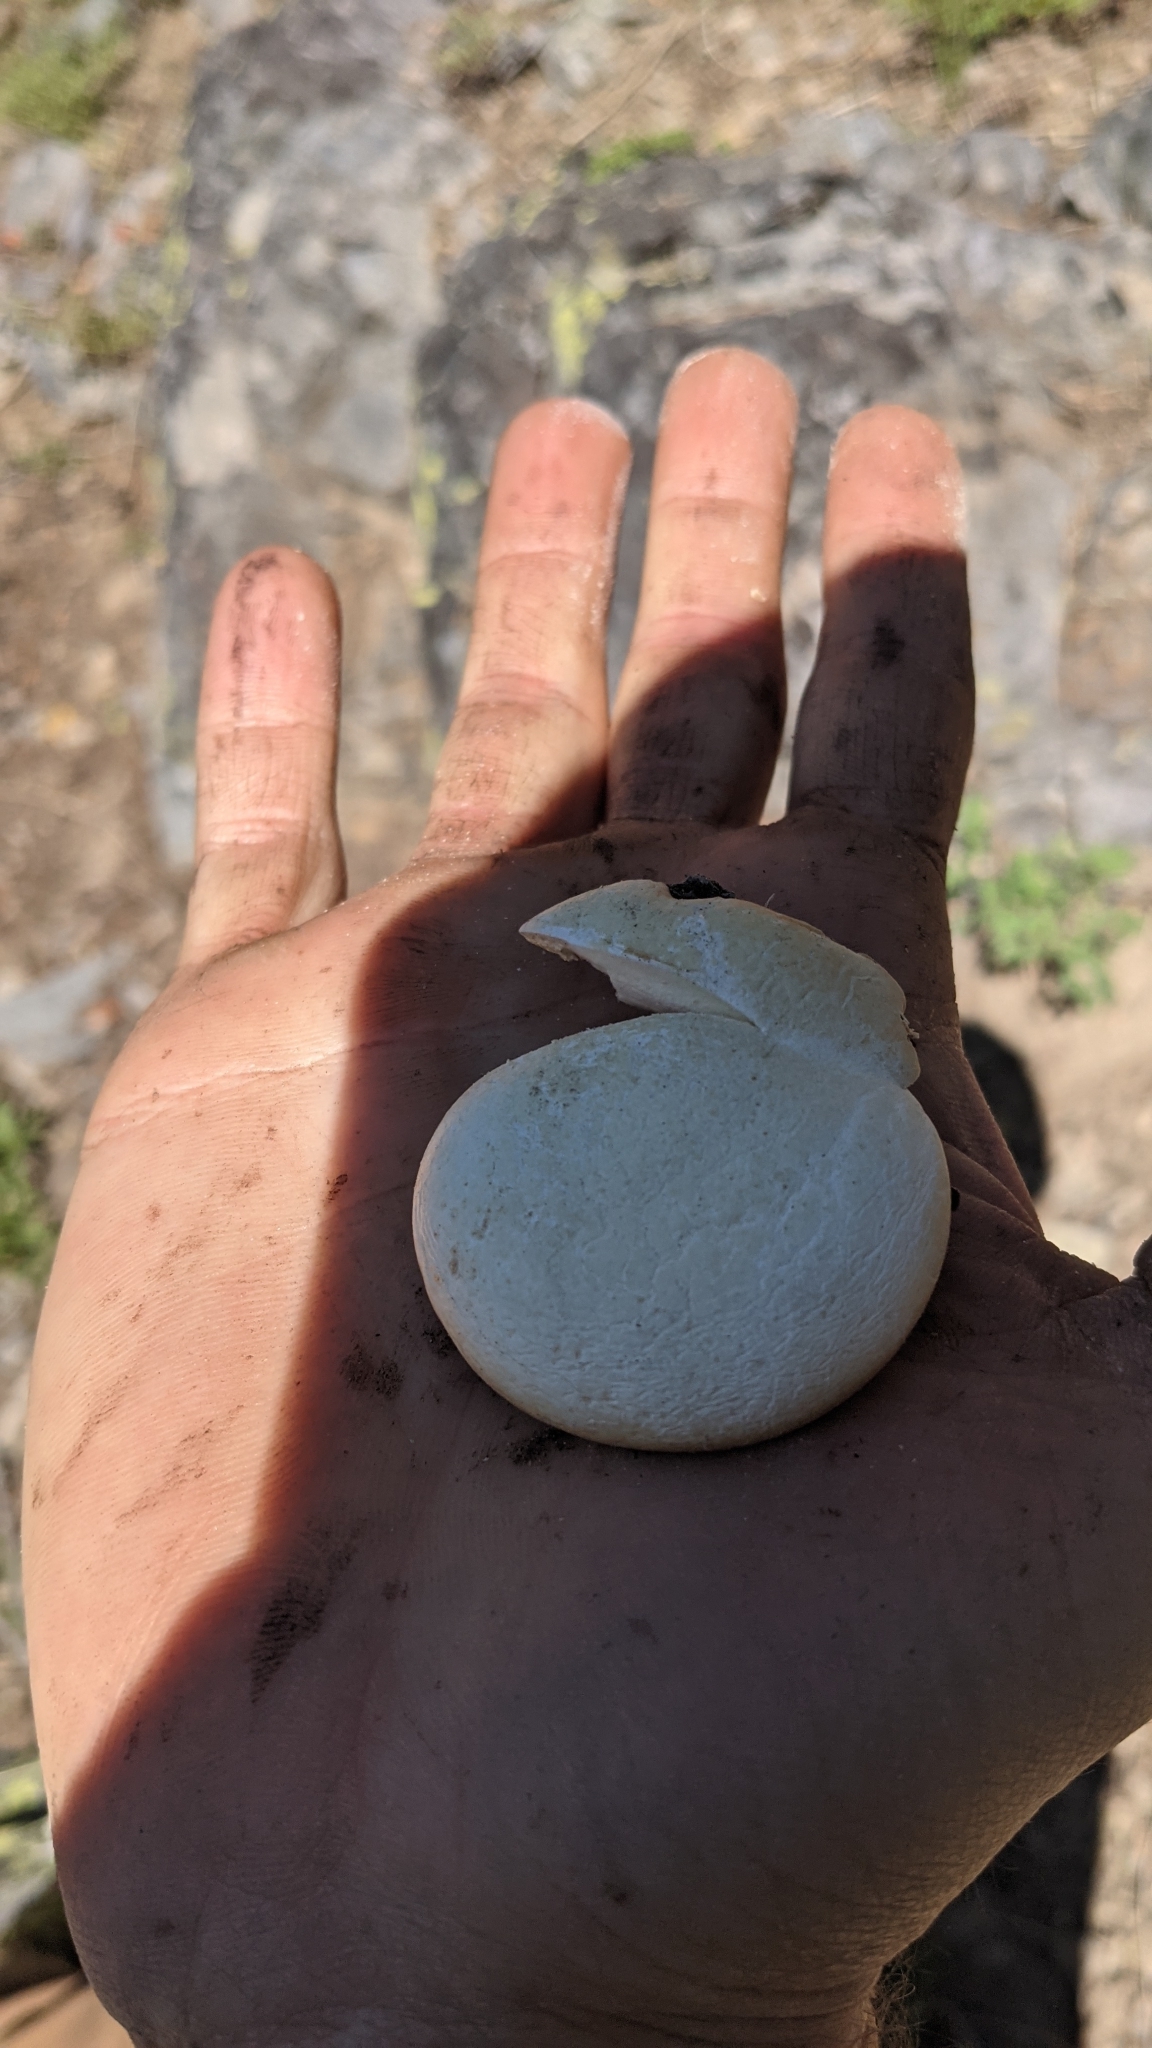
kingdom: Fungi
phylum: Basidiomycota
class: Agaricomycetes
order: Polyporales
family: Polyporaceae
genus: Cryptoporus
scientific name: Cryptoporus volvatus
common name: Veiled polypore
